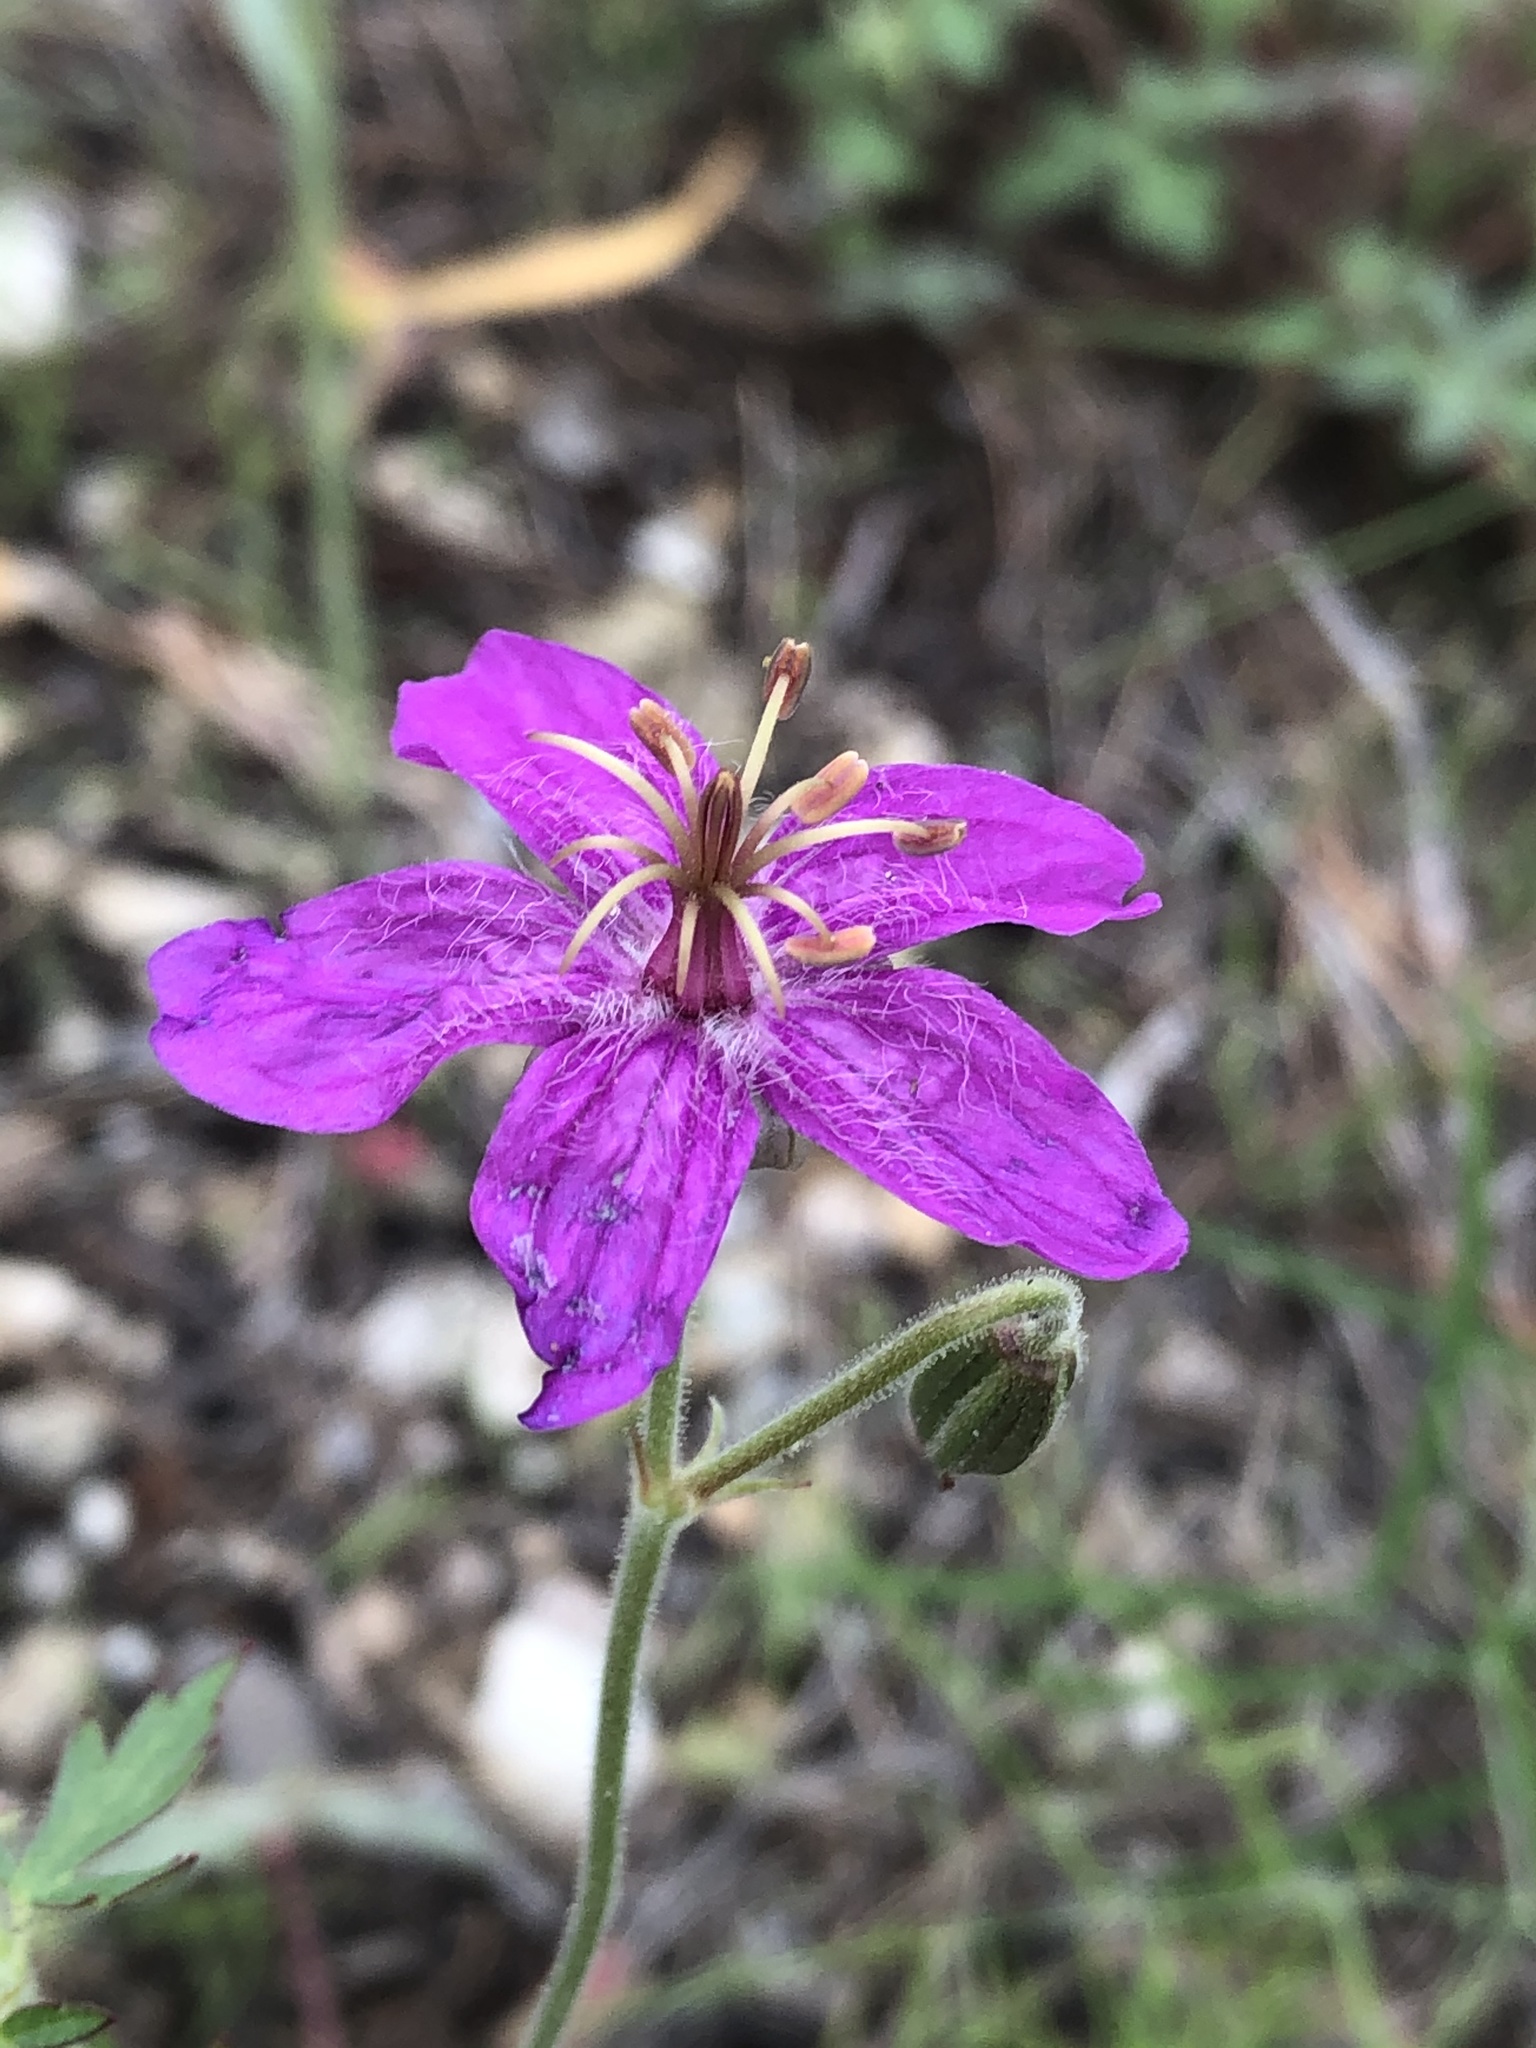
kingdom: Plantae
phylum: Tracheophyta
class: Magnoliopsida
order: Geraniales
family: Geraniaceae
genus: Geranium
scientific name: Geranium caespitosum
